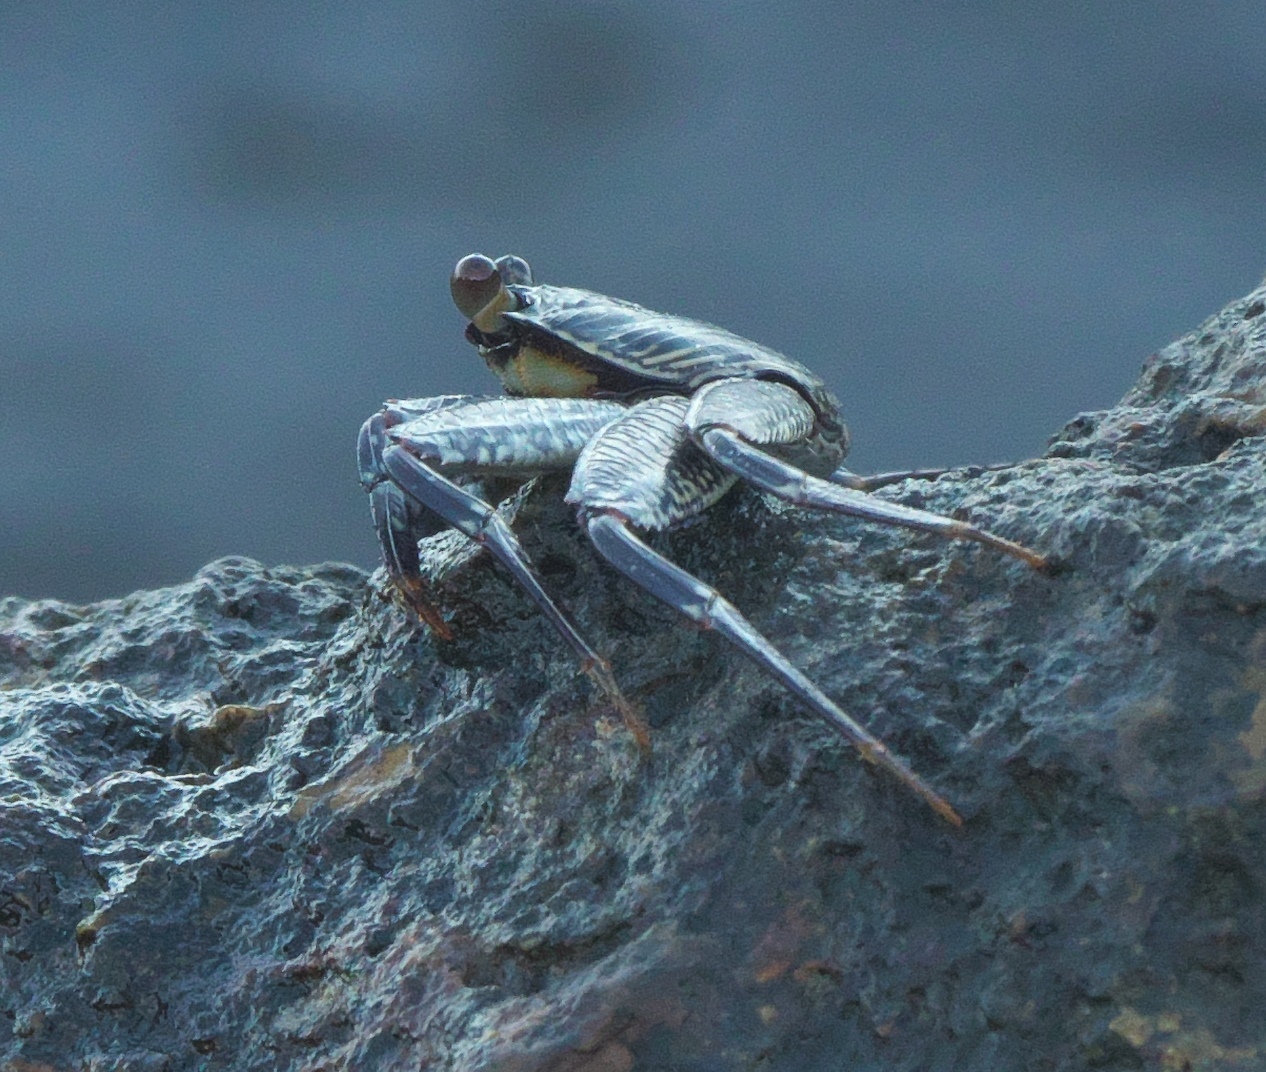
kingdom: Animalia
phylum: Arthropoda
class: Malacostraca
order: Decapoda
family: Grapsidae
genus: Grapsus
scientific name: Grapsus albolineatus
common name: Mottled lightfoot crab
